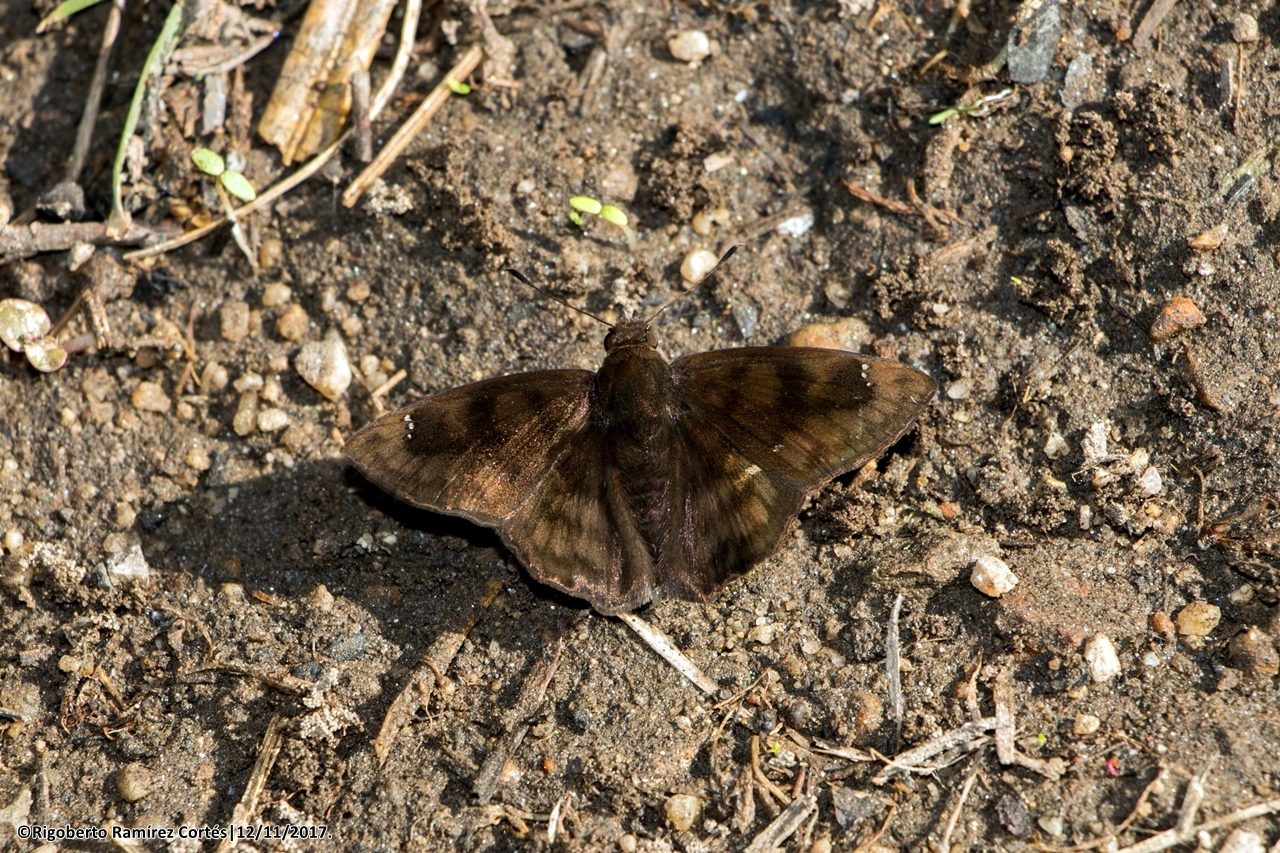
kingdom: Animalia
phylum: Arthropoda
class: Insecta
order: Lepidoptera
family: Hesperiidae
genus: Nisoniades
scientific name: Nisoniades
